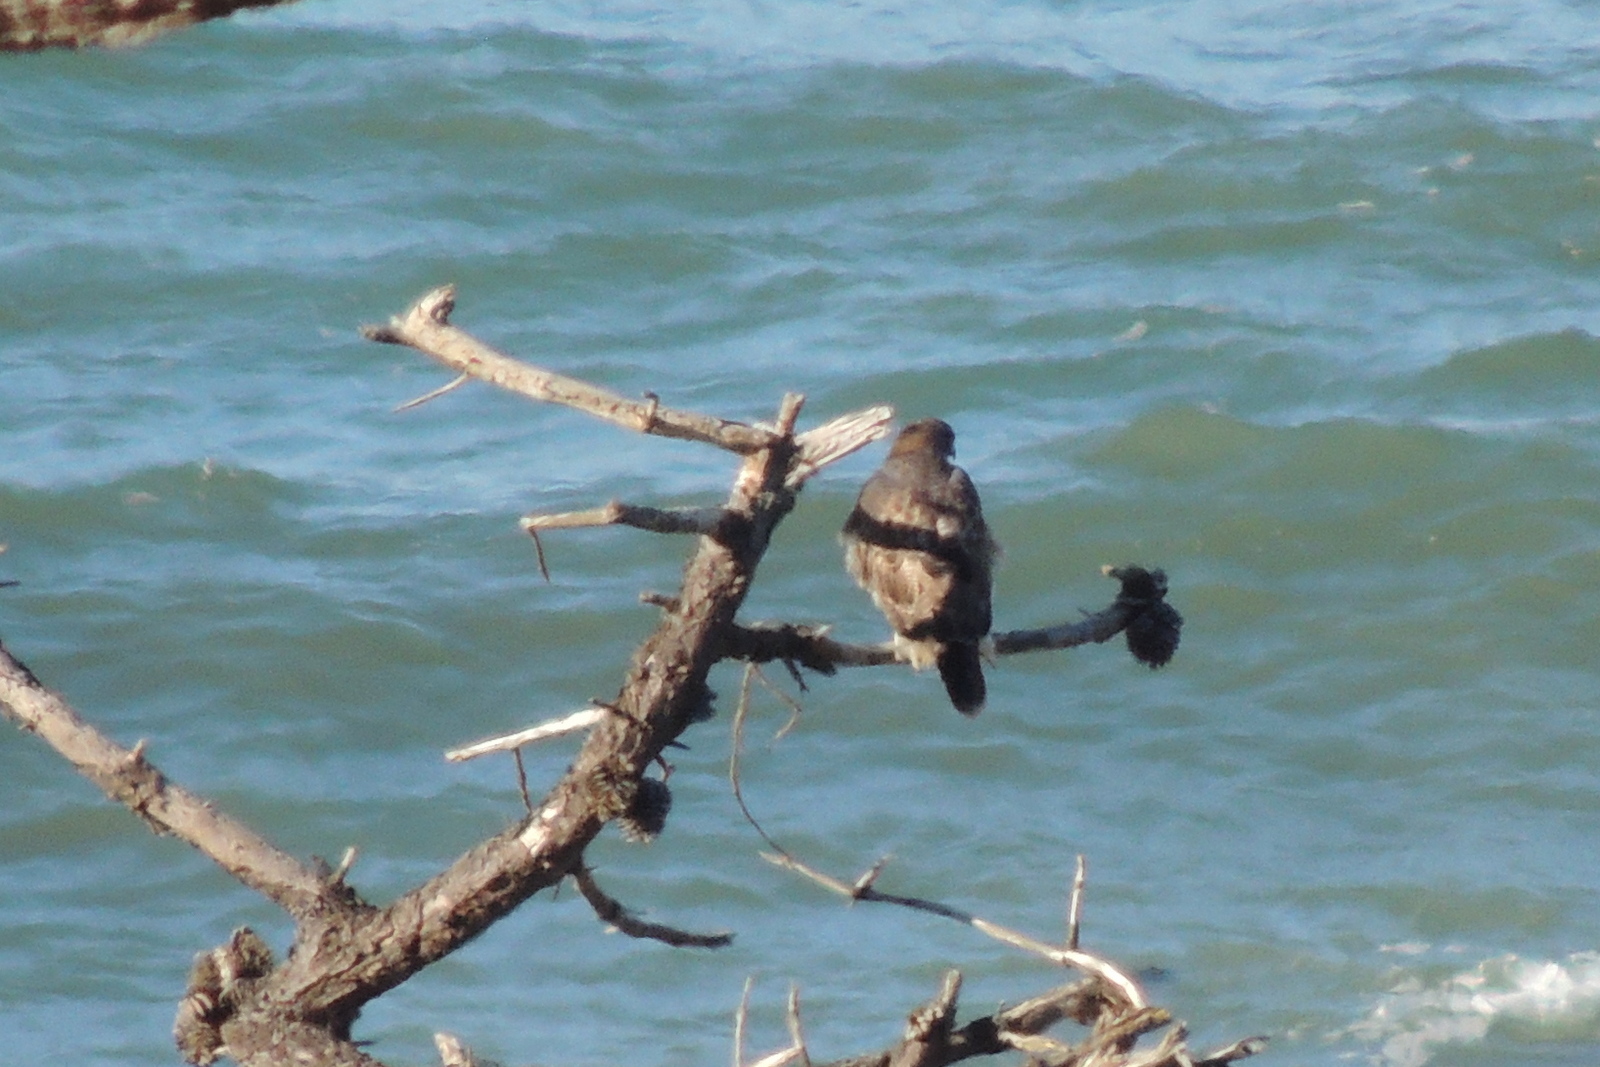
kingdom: Animalia
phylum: Chordata
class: Aves
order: Accipitriformes
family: Accipitridae
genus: Buteo
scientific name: Buteo jamaicensis
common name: Red-tailed hawk
